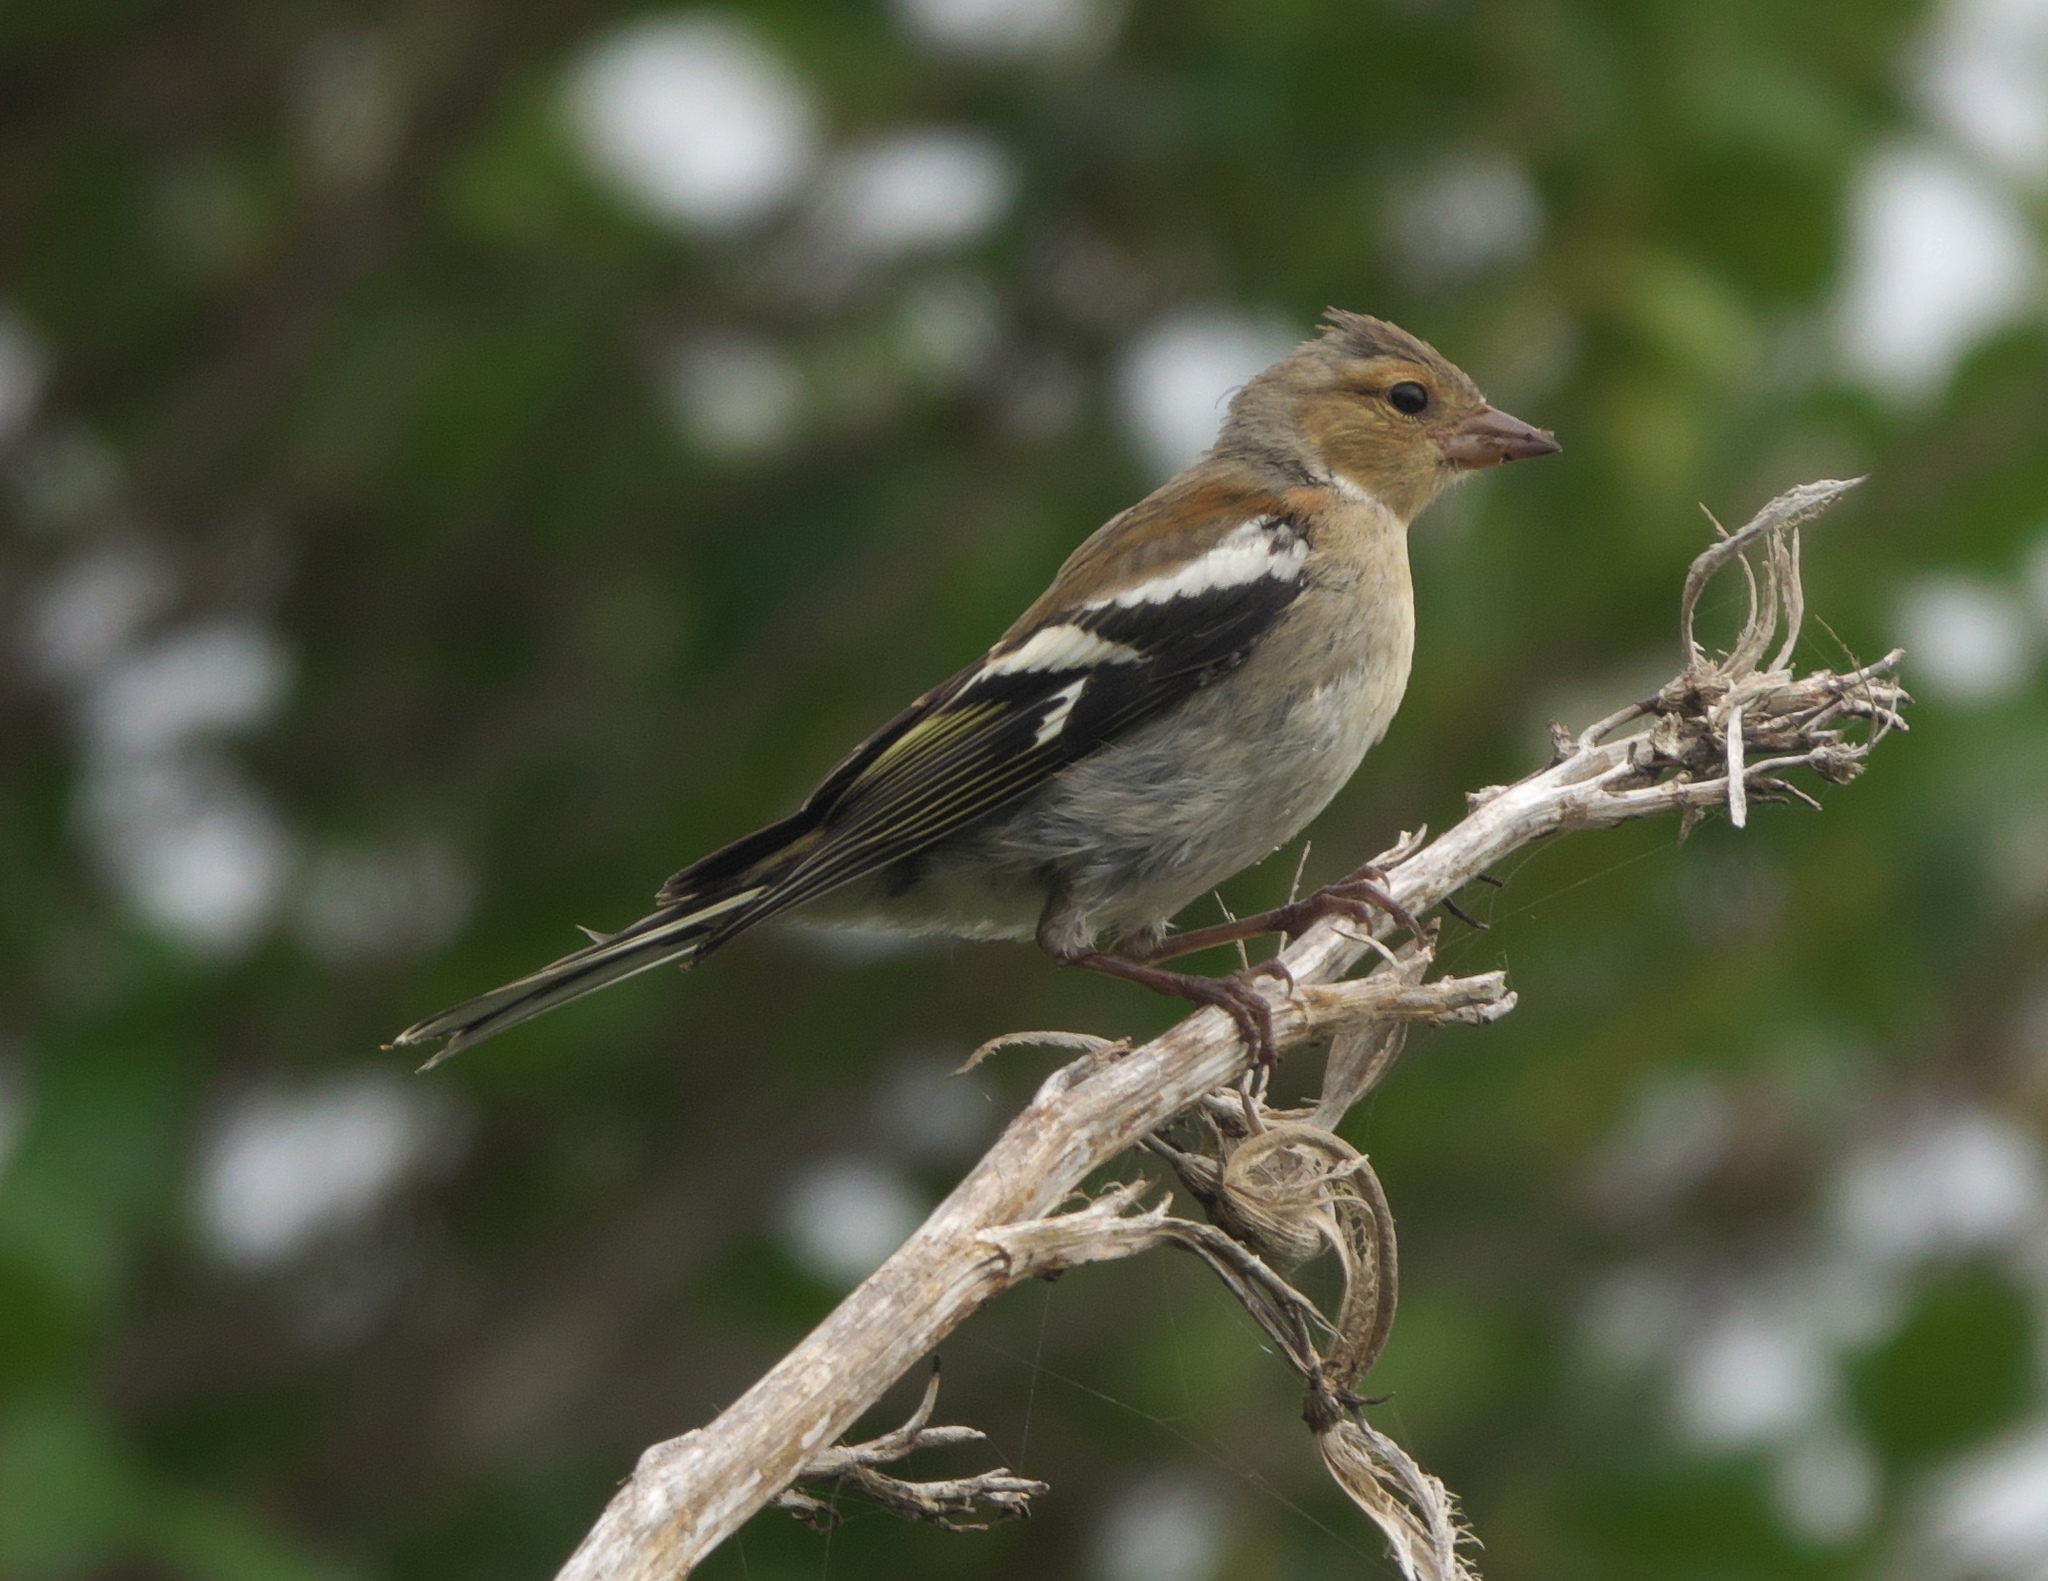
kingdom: Animalia
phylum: Chordata
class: Aves
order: Passeriformes
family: Fringillidae
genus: Fringilla
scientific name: Fringilla coelebs
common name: Common chaffinch
